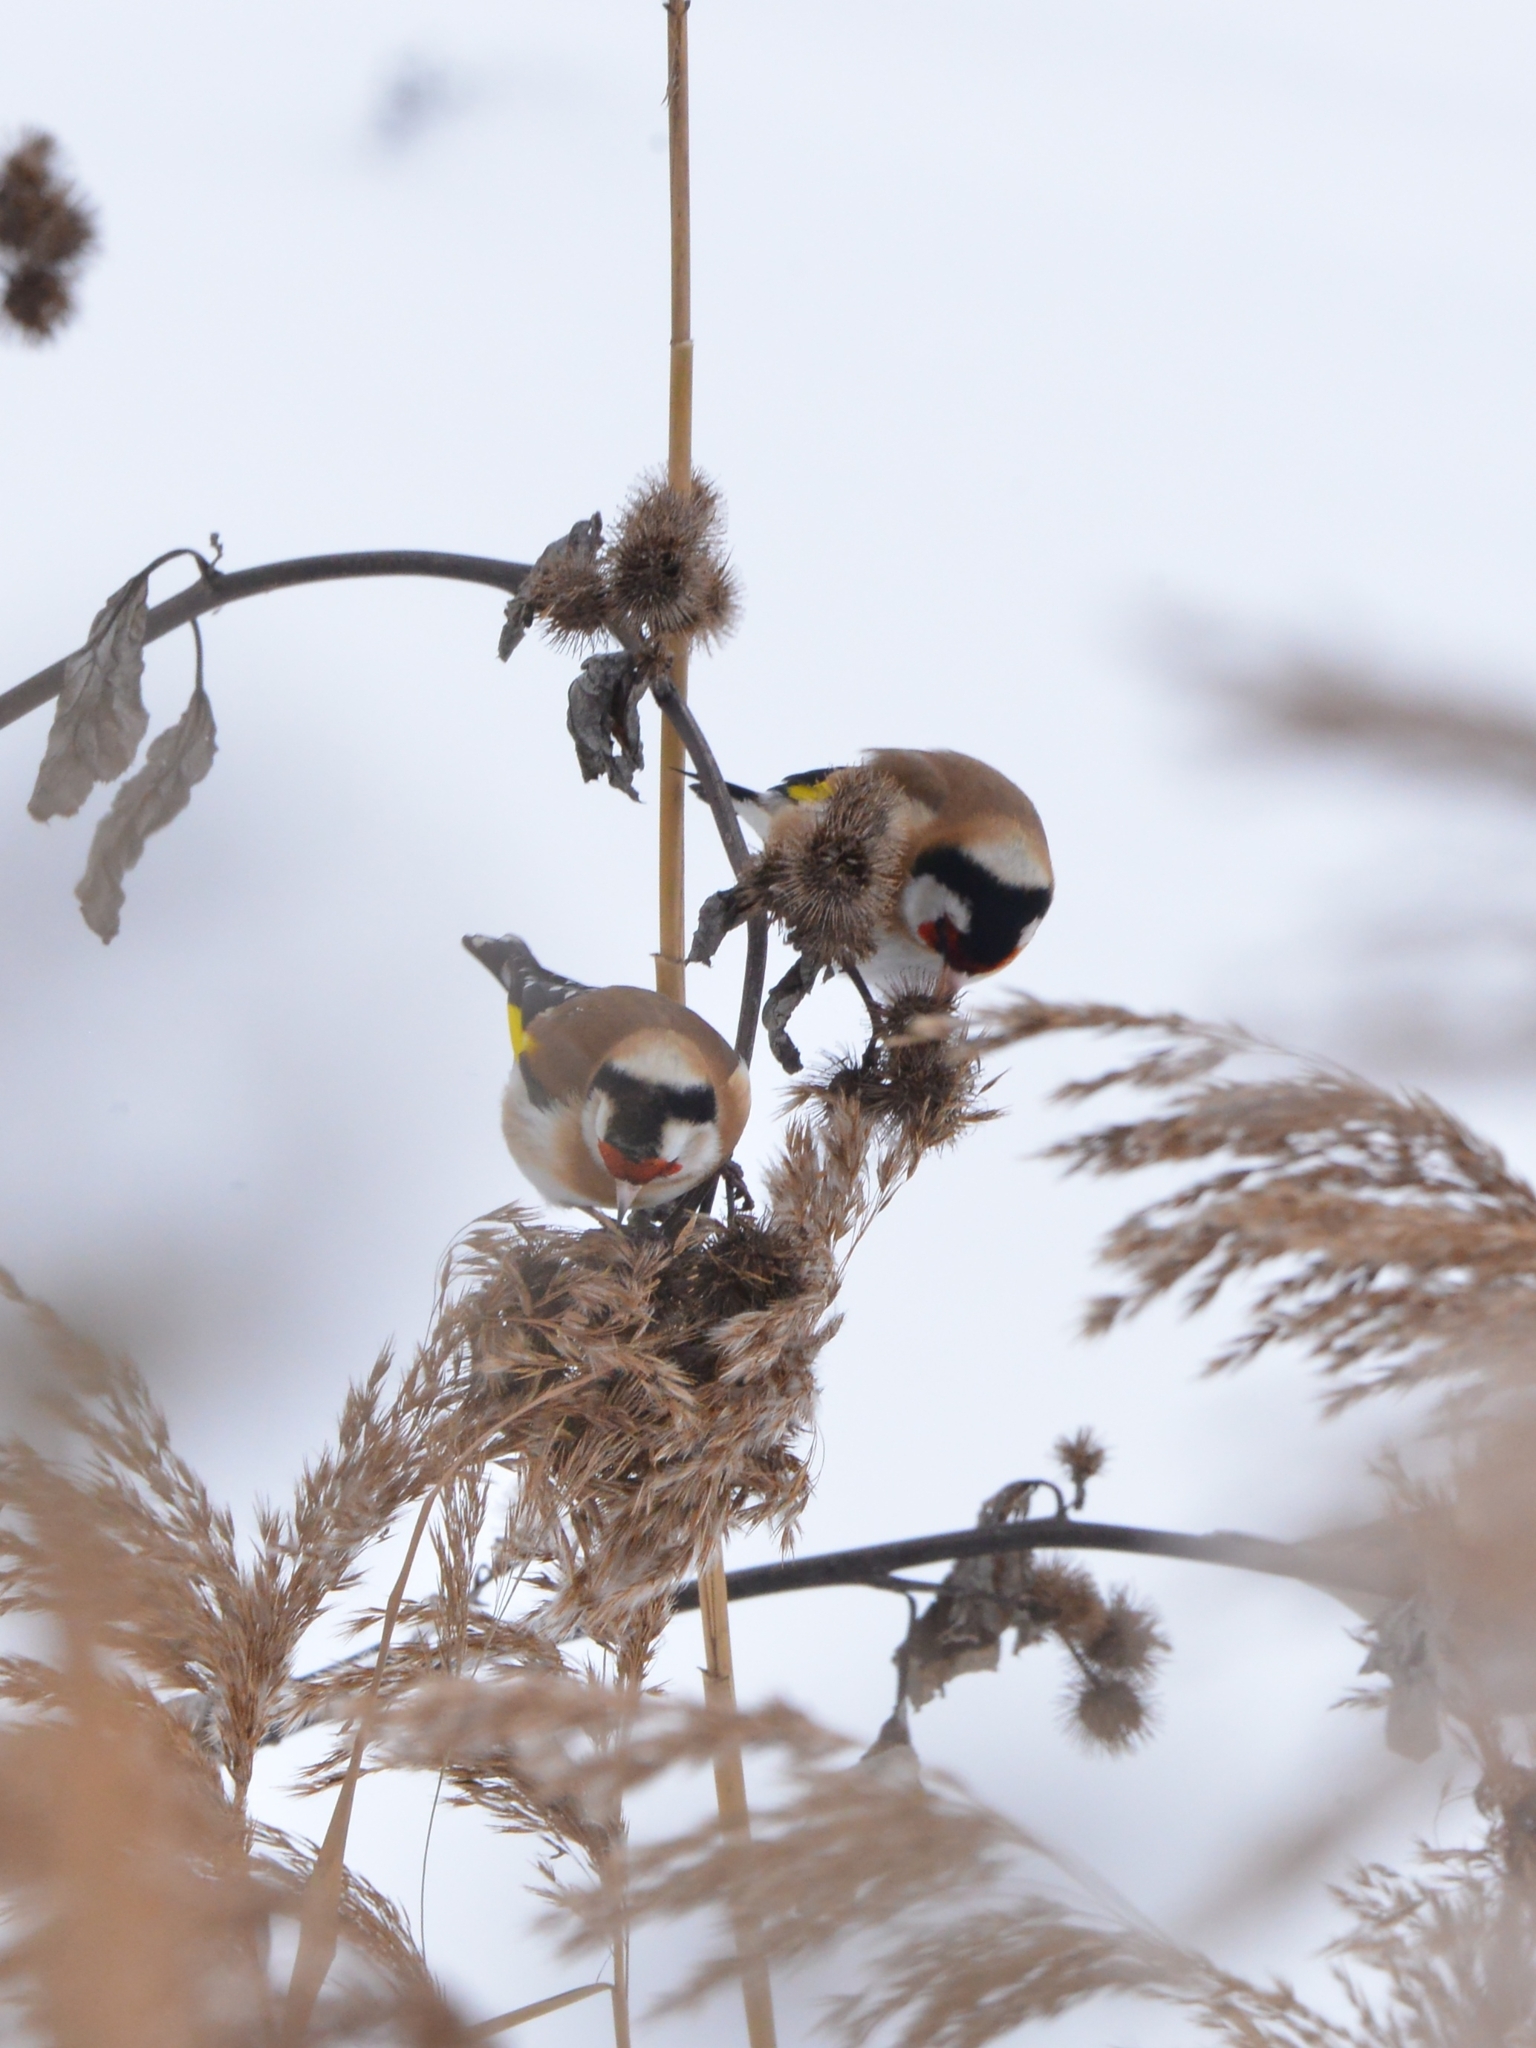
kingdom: Animalia
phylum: Chordata
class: Aves
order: Passeriformes
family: Fringillidae
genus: Carduelis
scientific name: Carduelis carduelis
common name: European goldfinch
